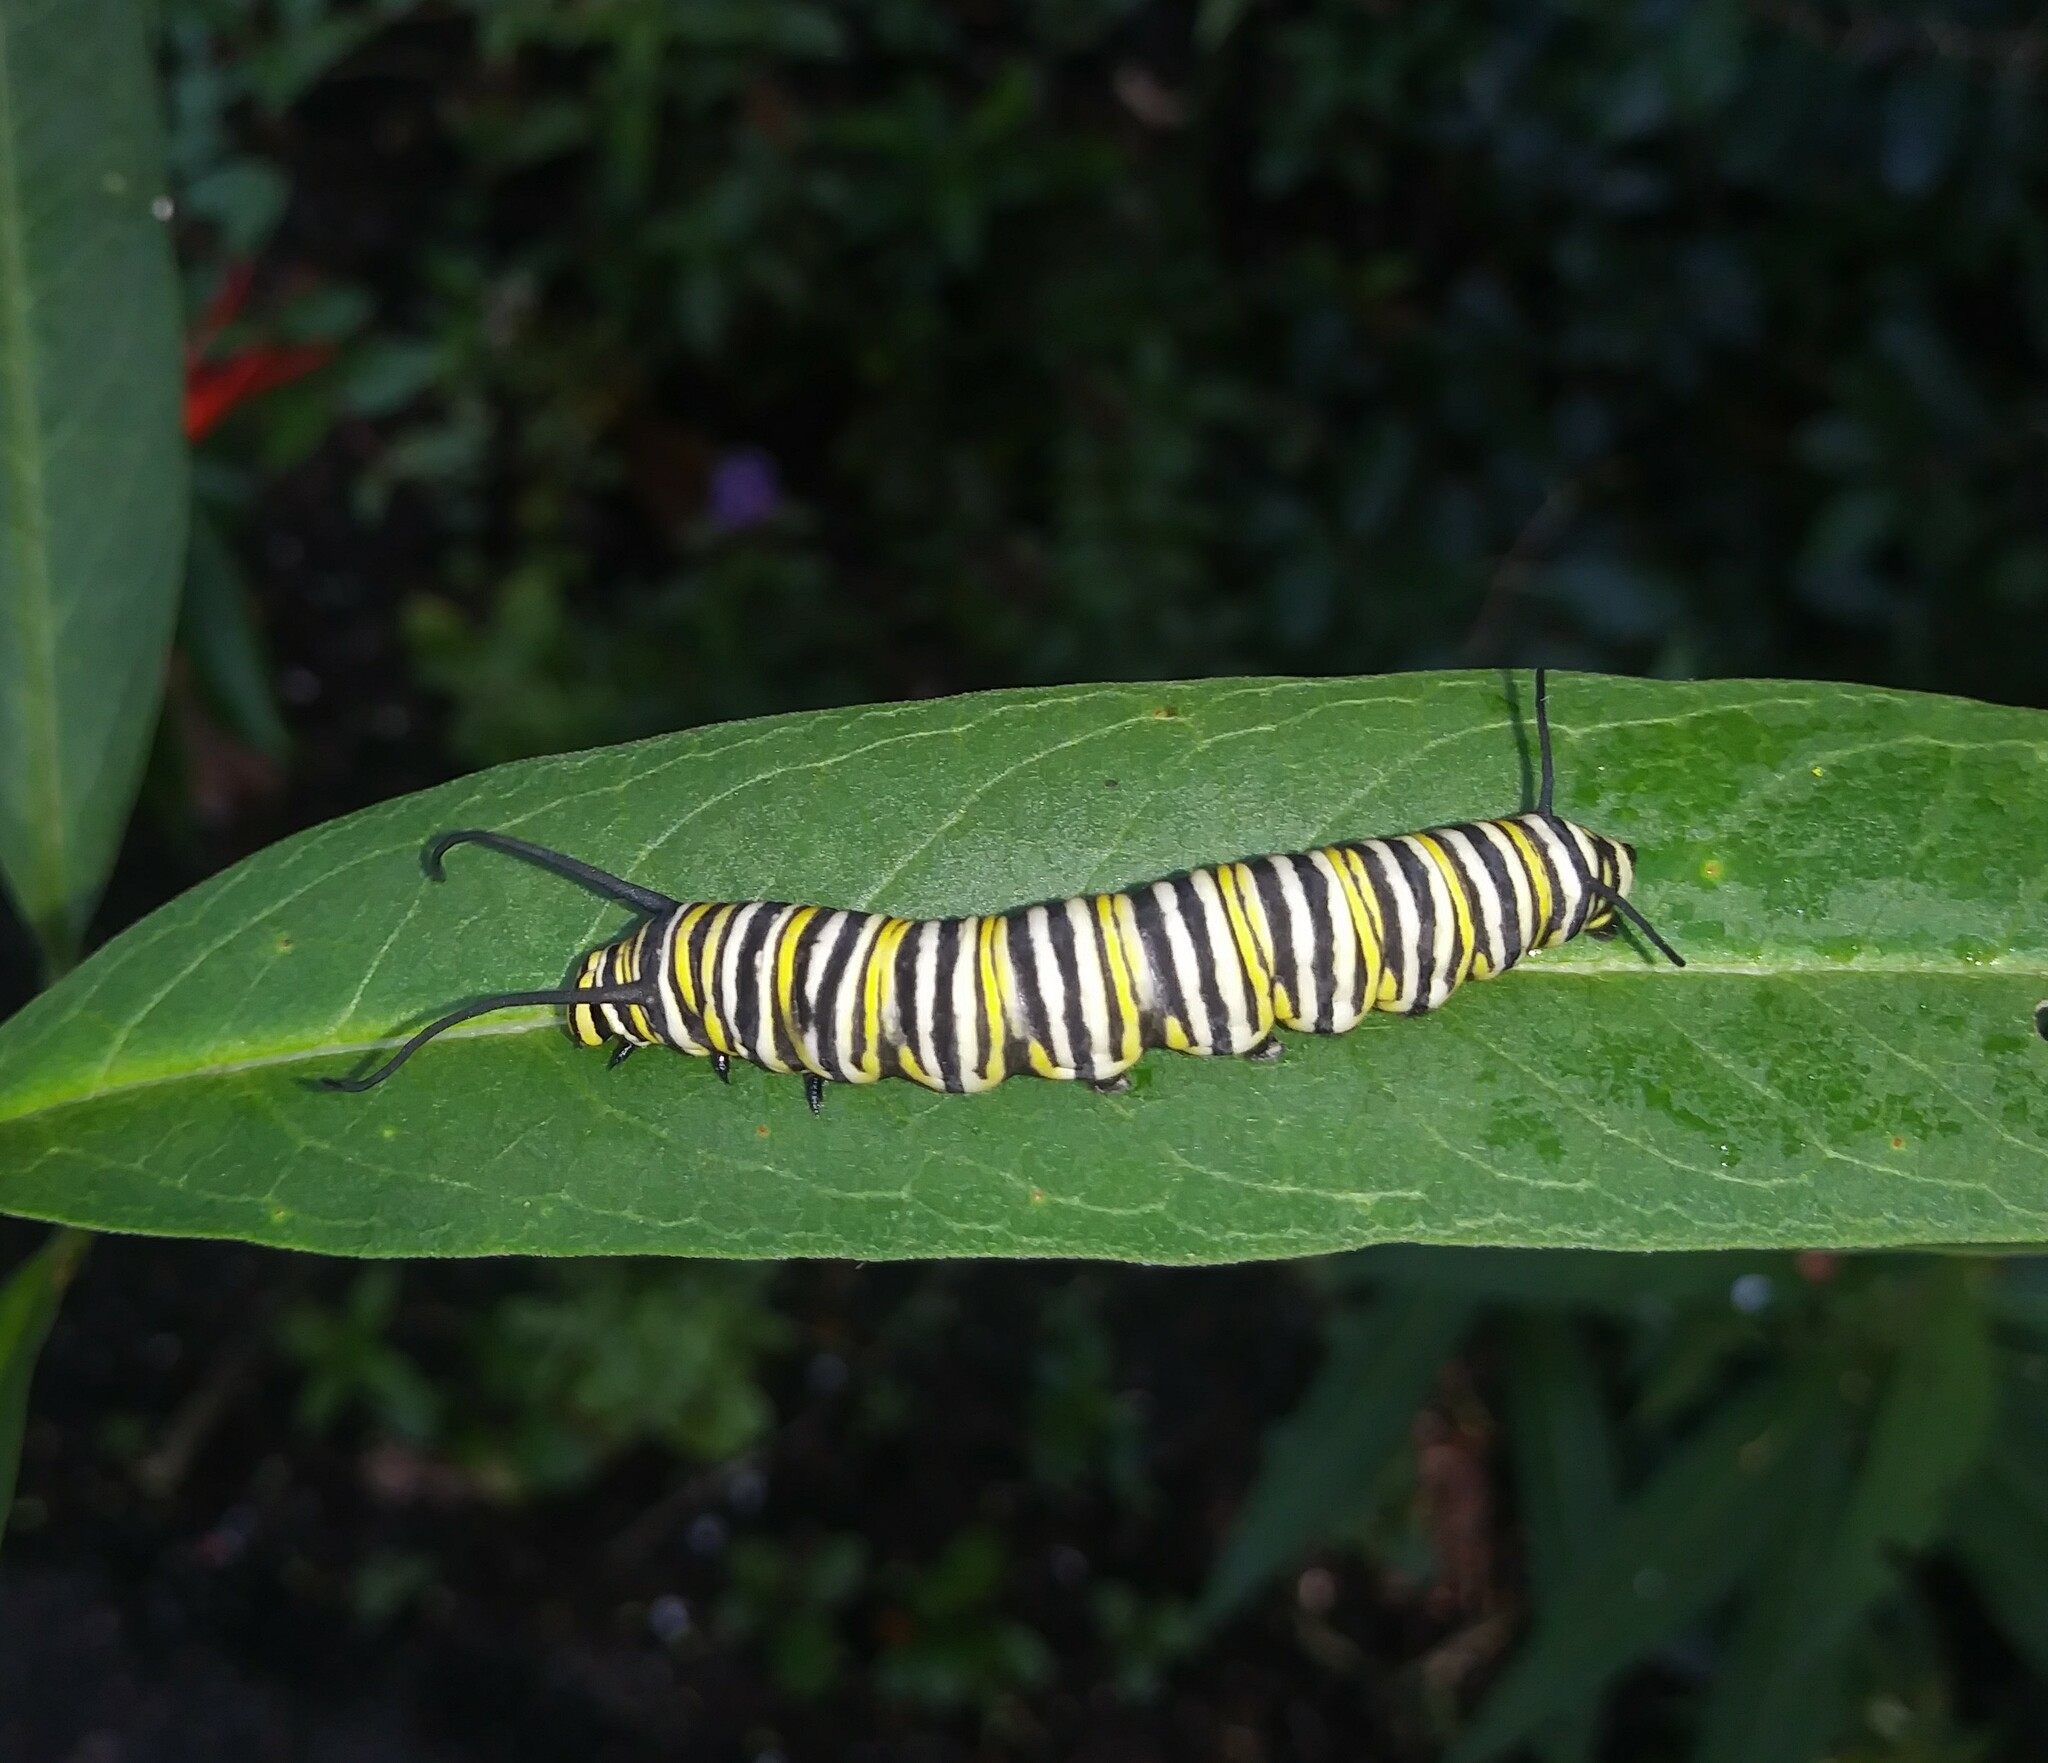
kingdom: Animalia
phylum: Arthropoda
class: Insecta
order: Lepidoptera
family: Nymphalidae
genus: Danaus
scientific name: Danaus plexippus
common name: Monarch
